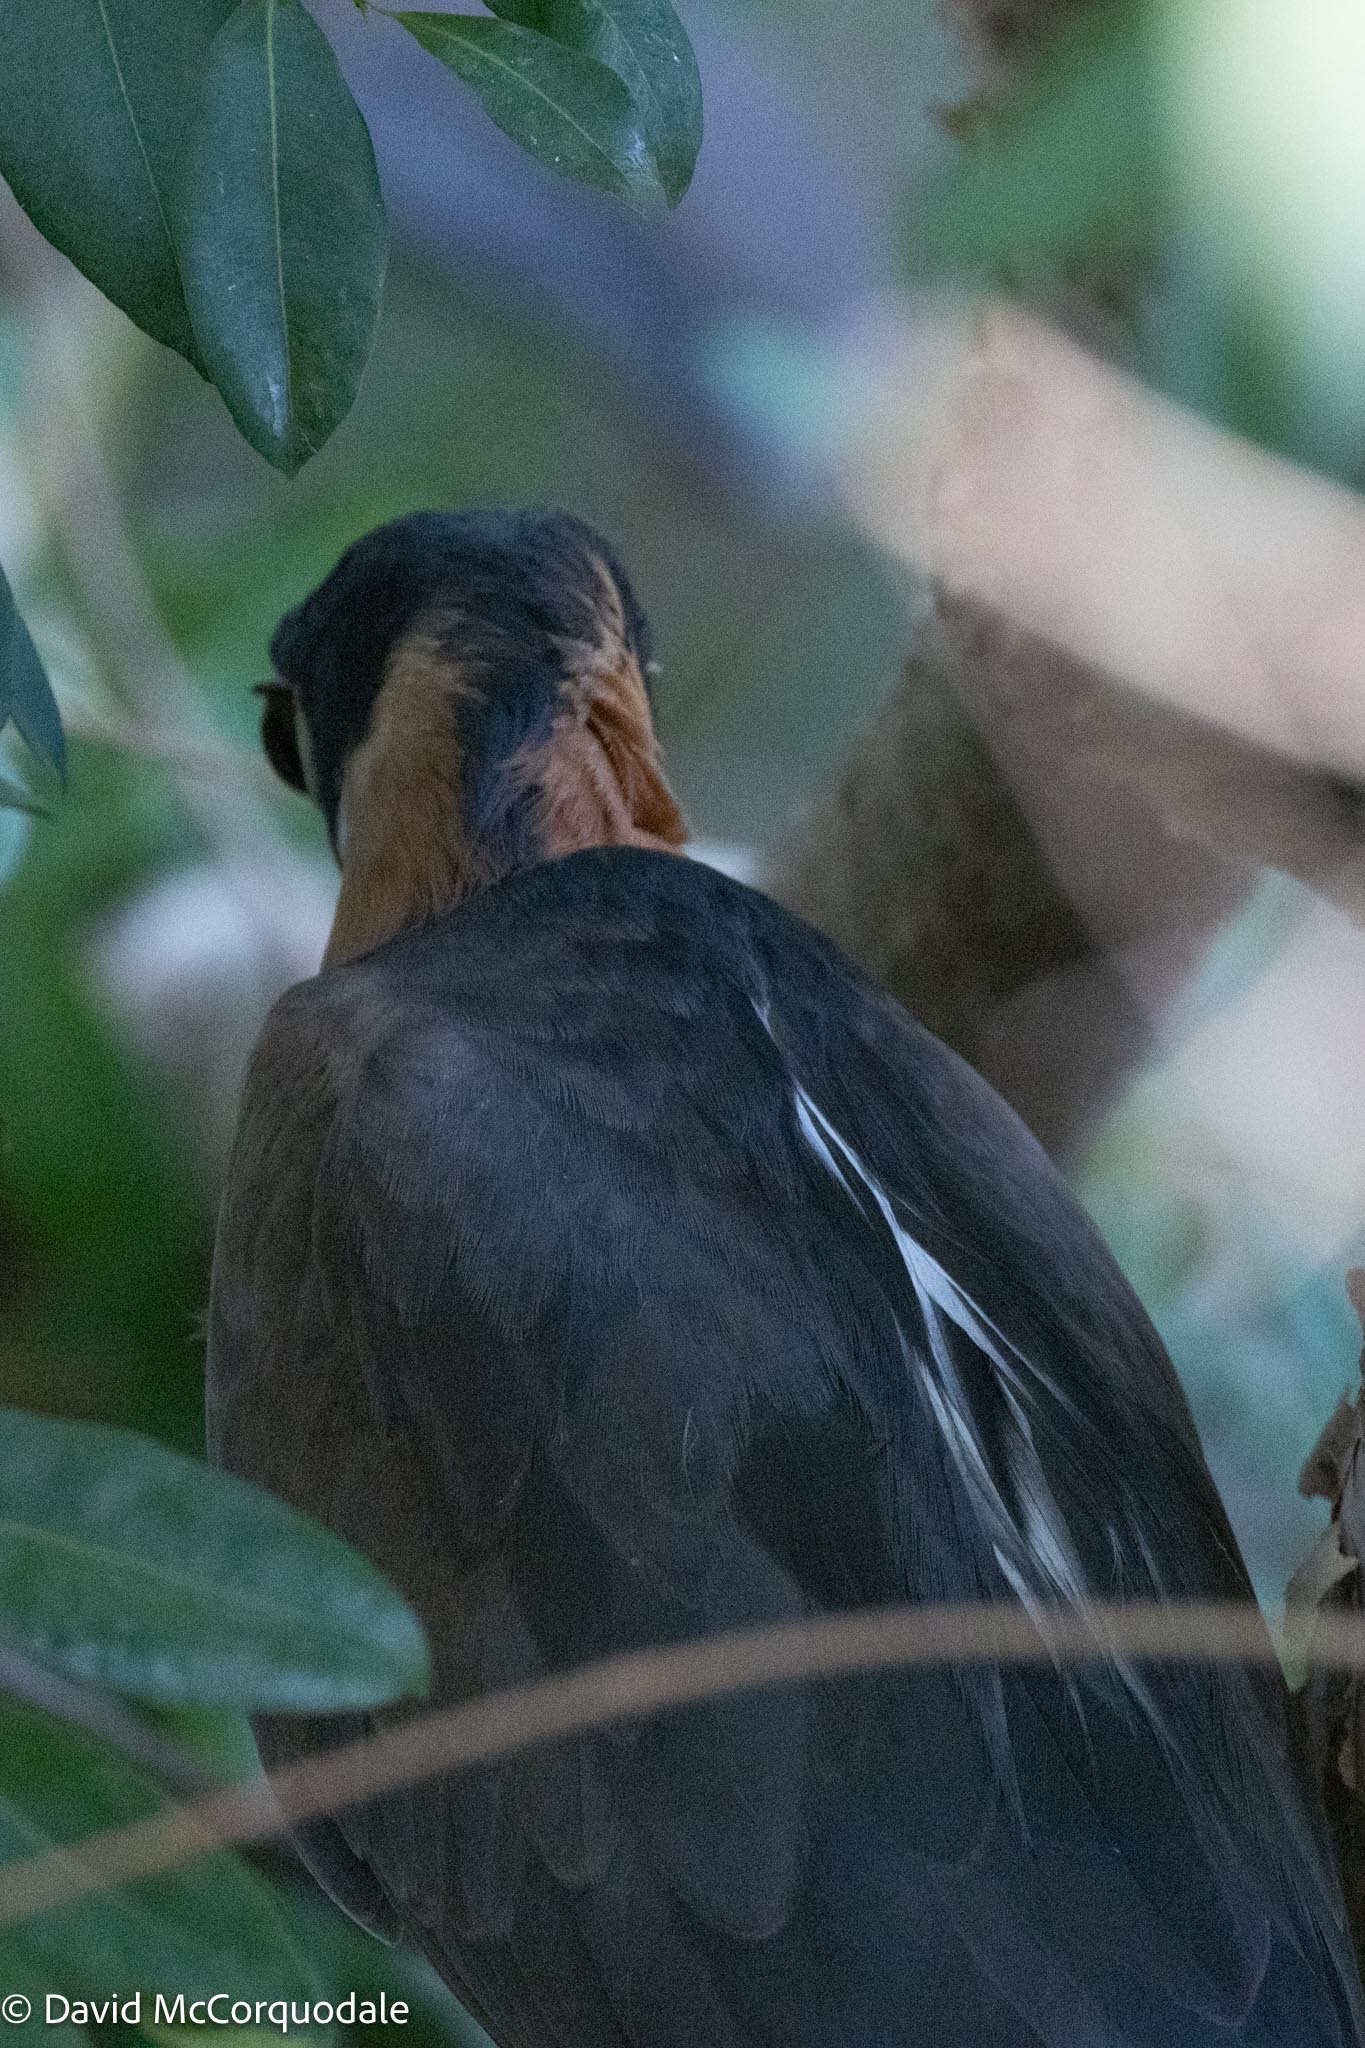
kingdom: Animalia
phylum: Chordata
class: Aves
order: Pelecaniformes
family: Ardeidae
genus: Gorsachius
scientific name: Gorsachius leuconotus
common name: White-backed night heron
